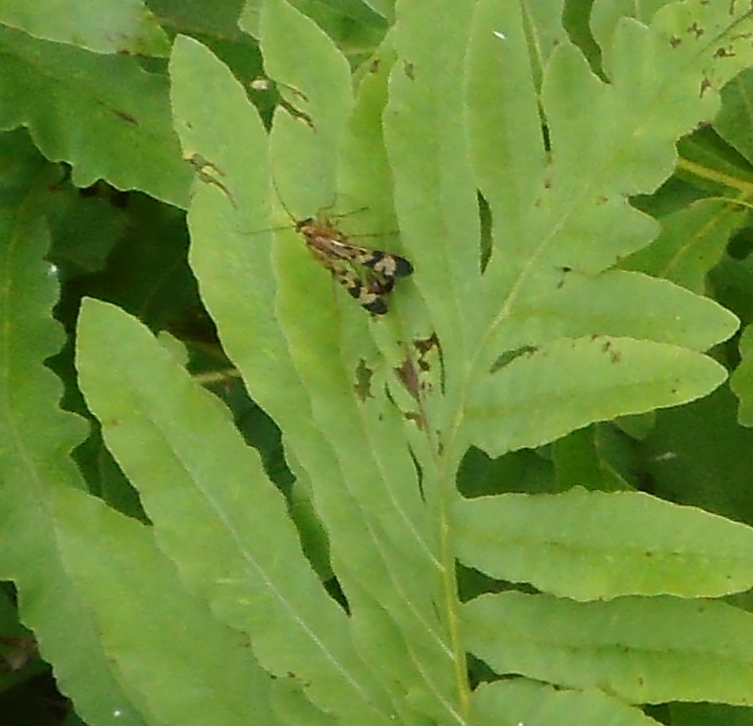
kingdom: Animalia
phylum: Arthropoda
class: Insecta
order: Mecoptera
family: Panorpidae
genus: Panorpa
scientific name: Panorpa amurensis
